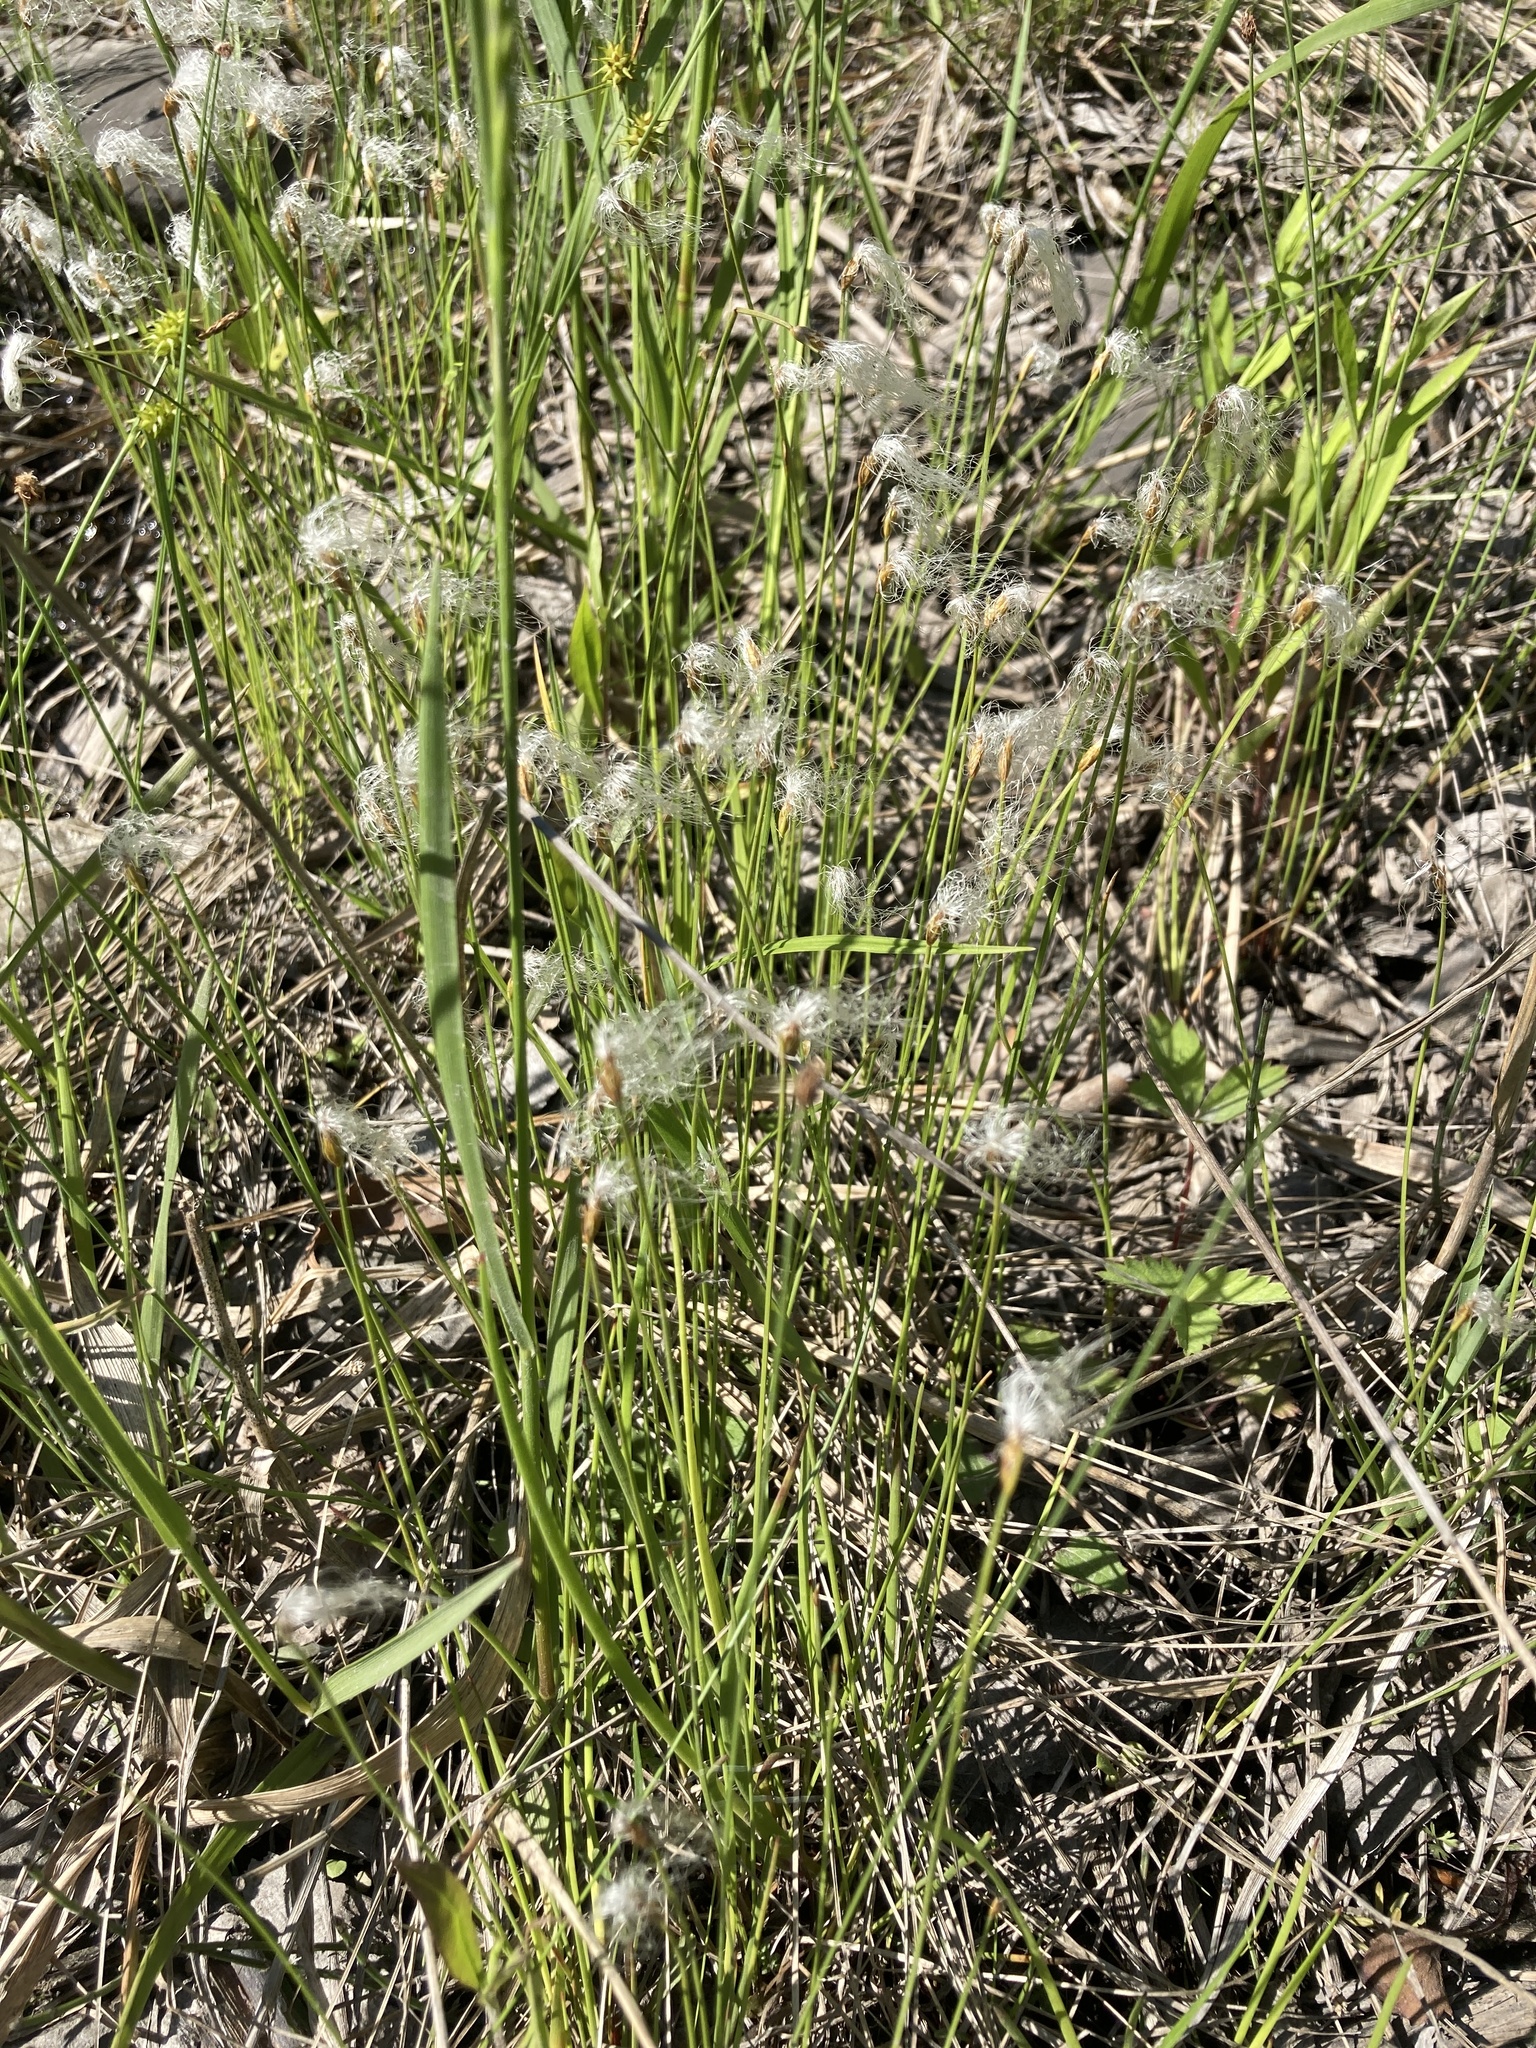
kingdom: Plantae
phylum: Tracheophyta
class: Liliopsida
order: Poales
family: Cyperaceae
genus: Trichophorum
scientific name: Trichophorum alpinum
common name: Alpine bulrush
